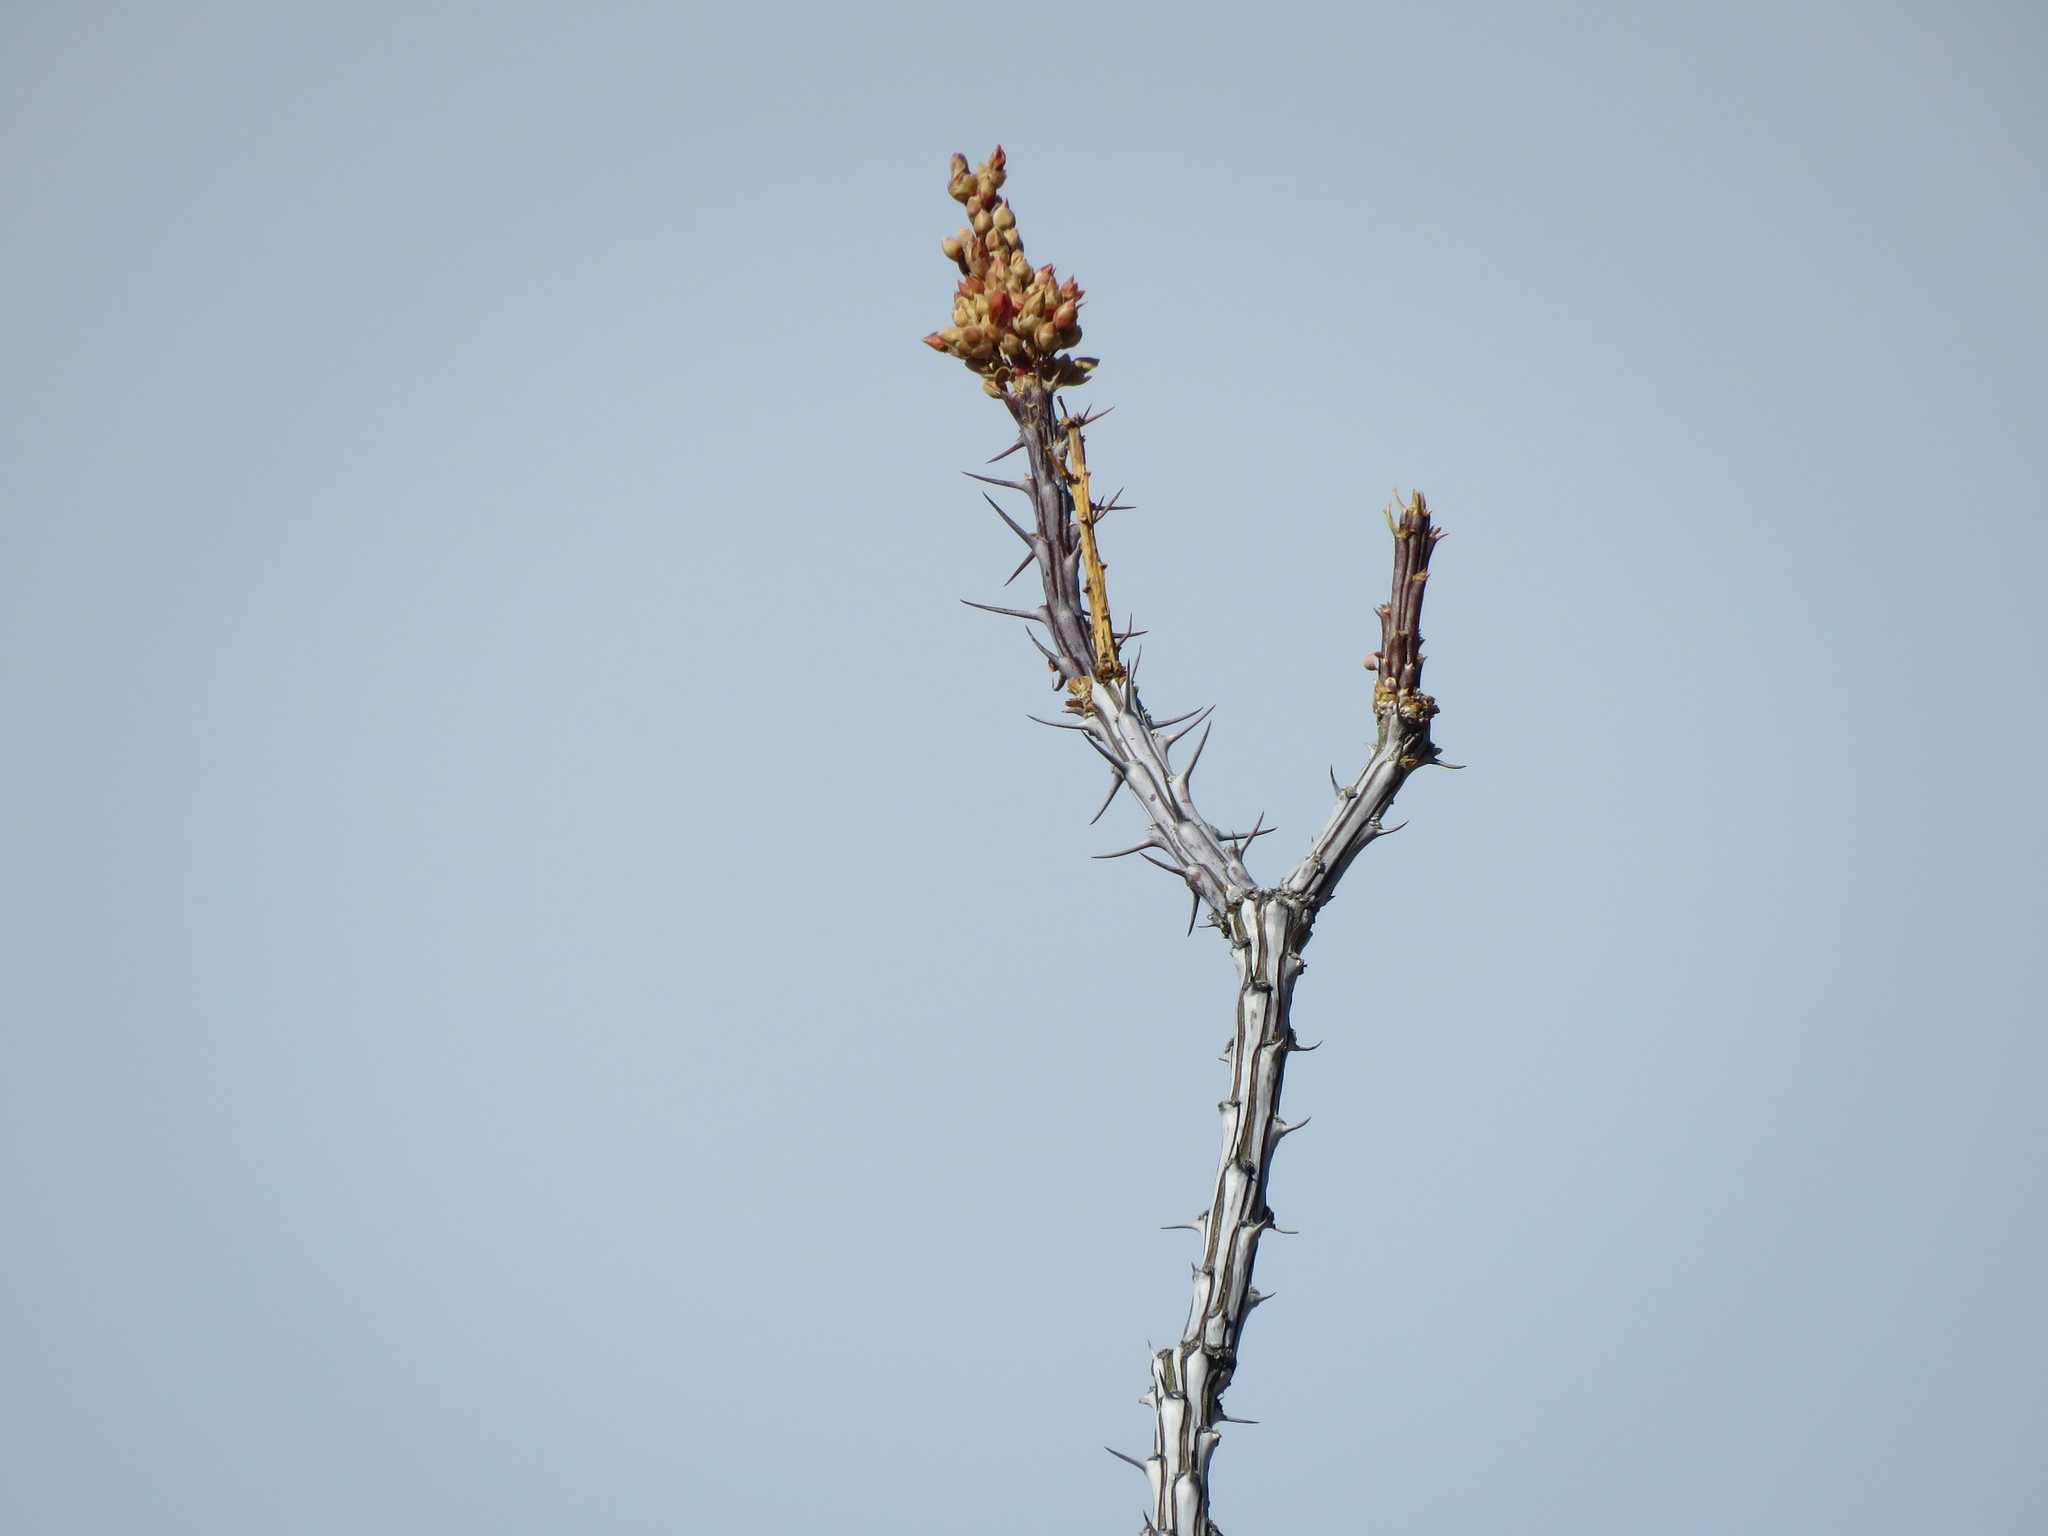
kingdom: Plantae
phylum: Tracheophyta
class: Magnoliopsida
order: Ericales
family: Fouquieriaceae
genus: Fouquieria
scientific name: Fouquieria splendens
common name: Vine-cactus
